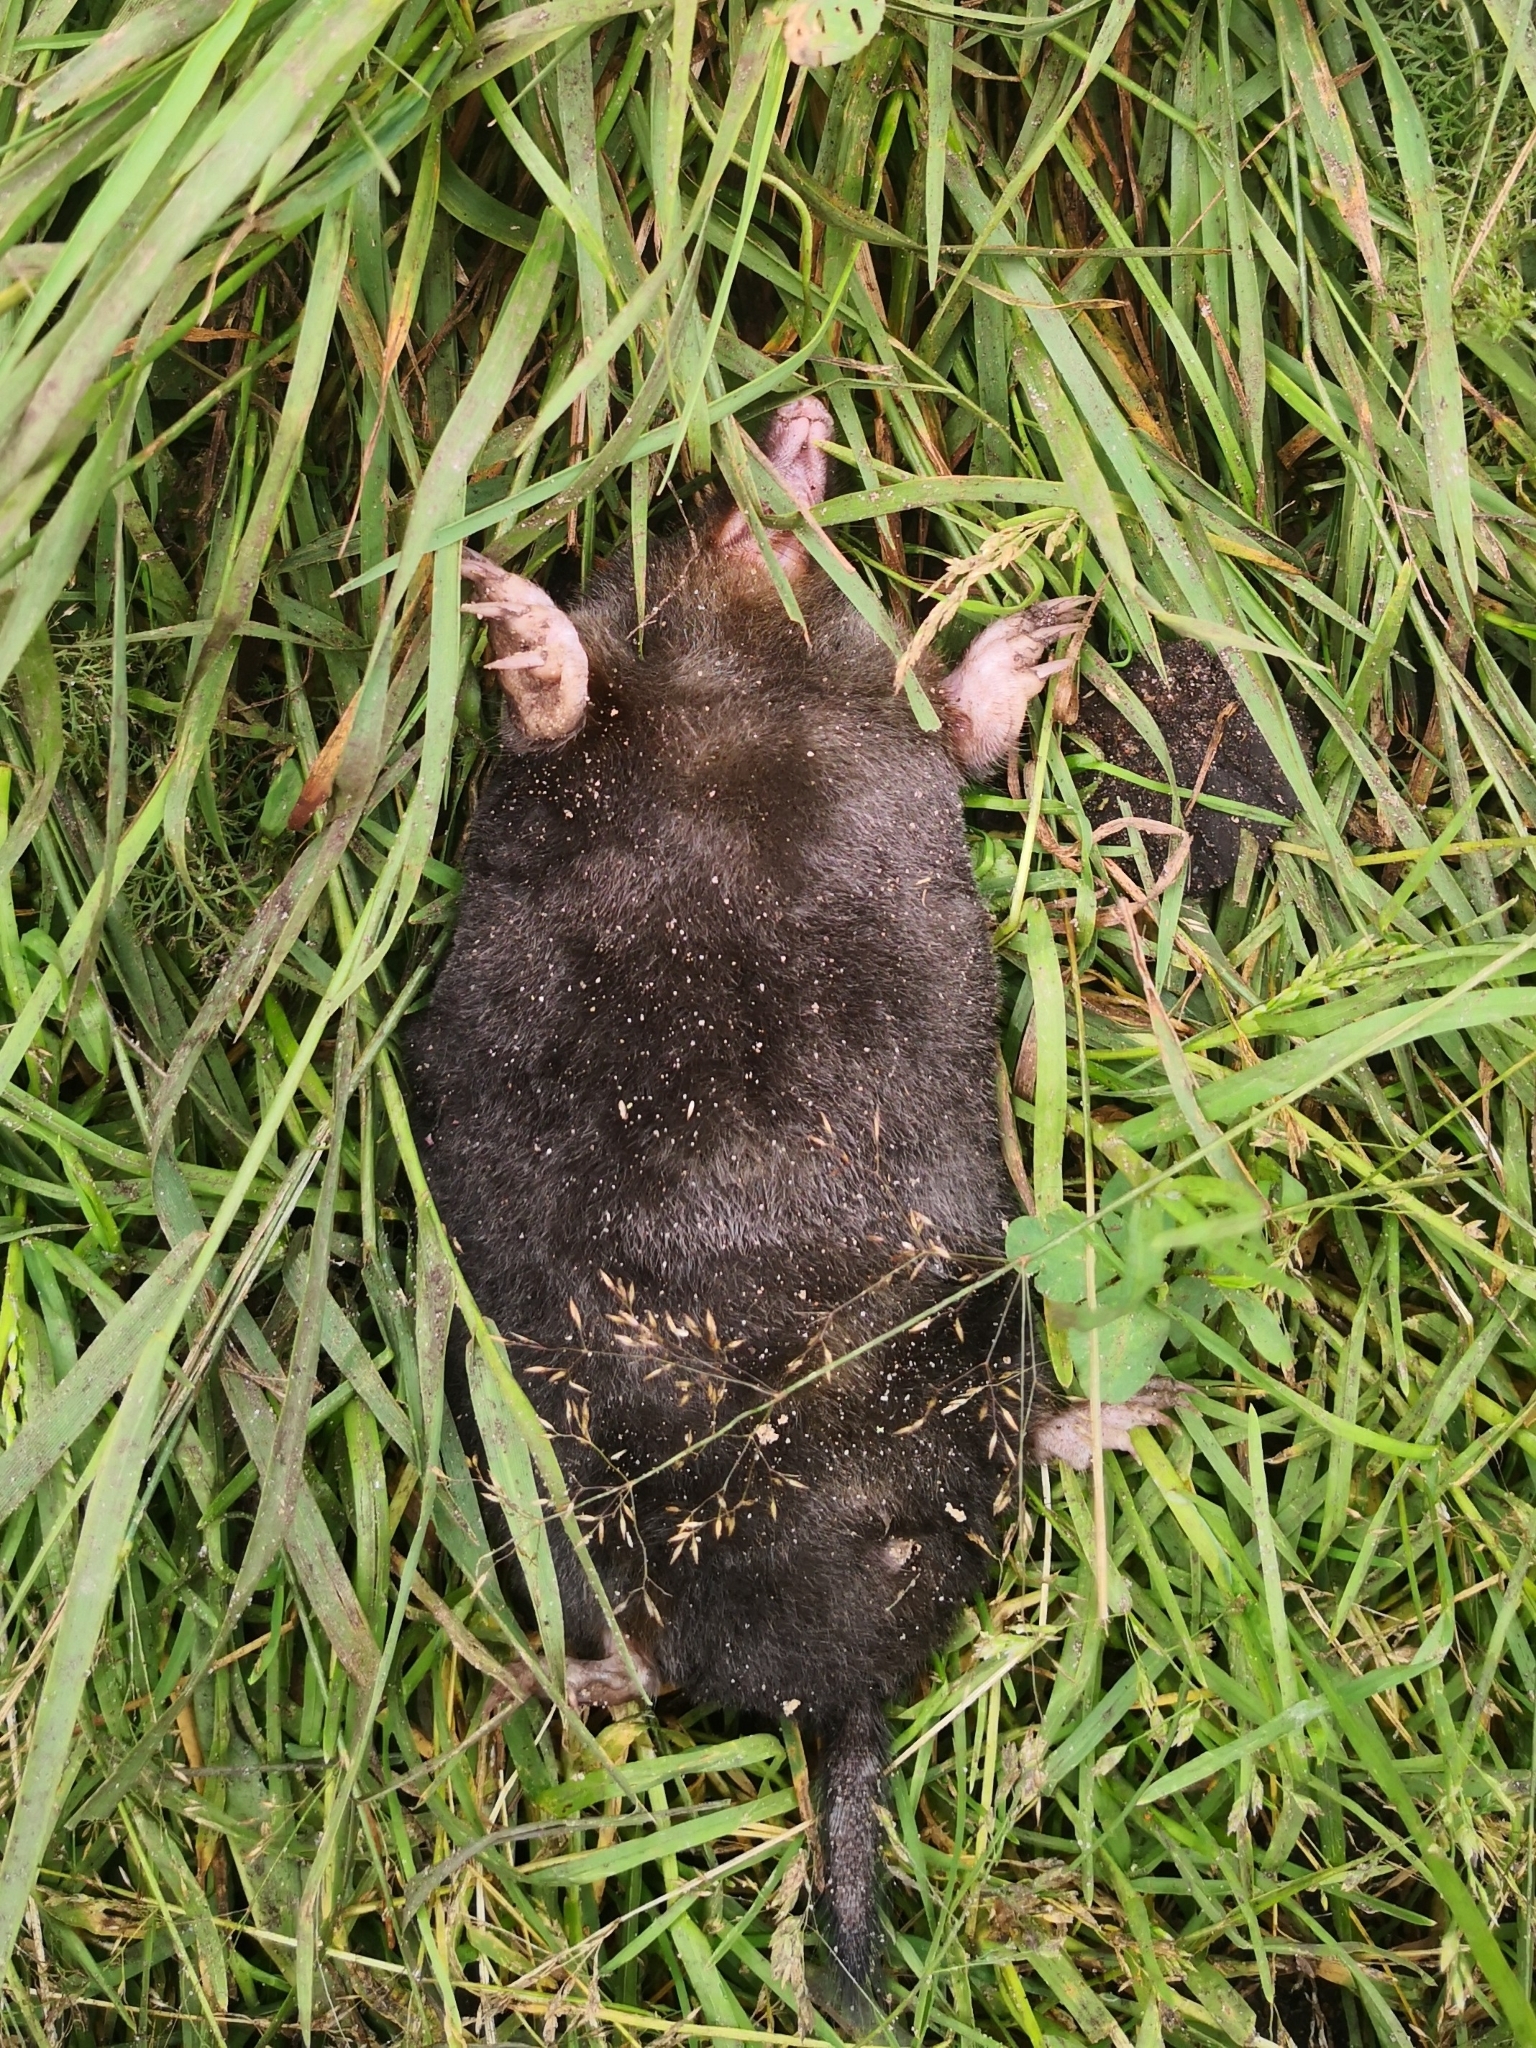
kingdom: Animalia
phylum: Chordata
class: Mammalia
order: Soricomorpha
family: Talpidae
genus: Talpa
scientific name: Talpa europaea
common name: European mole
